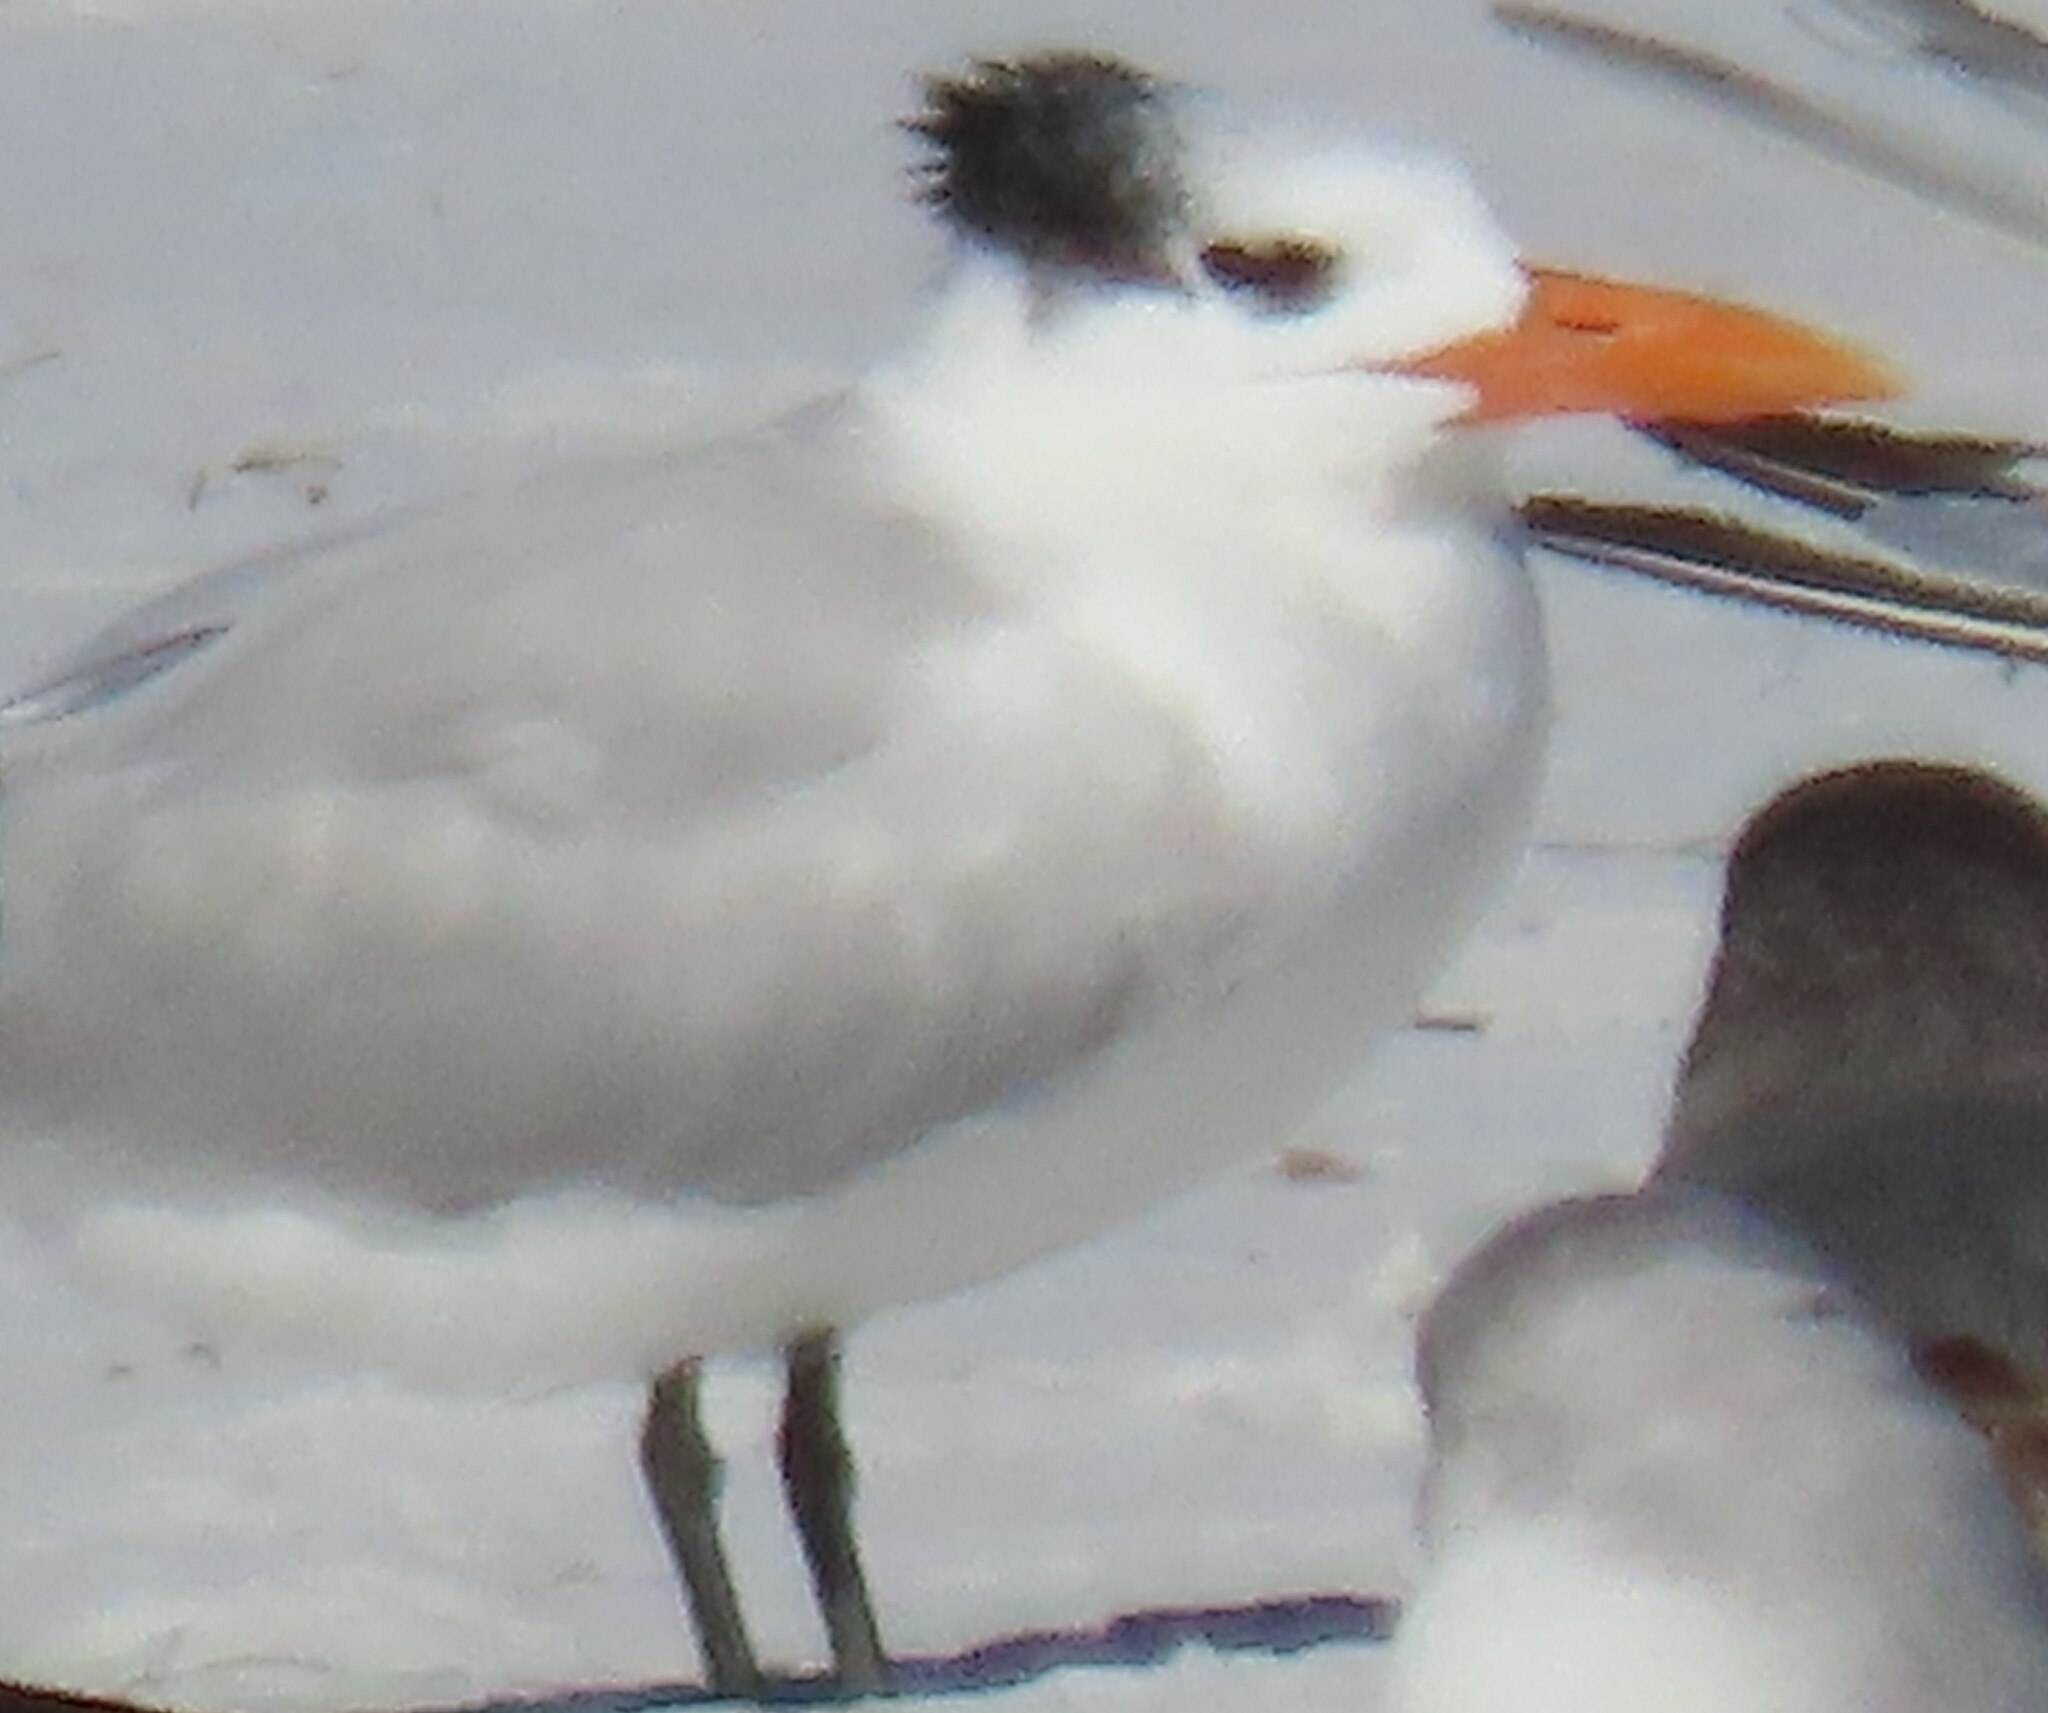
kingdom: Animalia
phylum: Chordata
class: Aves
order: Charadriiformes
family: Laridae
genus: Thalasseus
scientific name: Thalasseus maximus
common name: Royal tern
